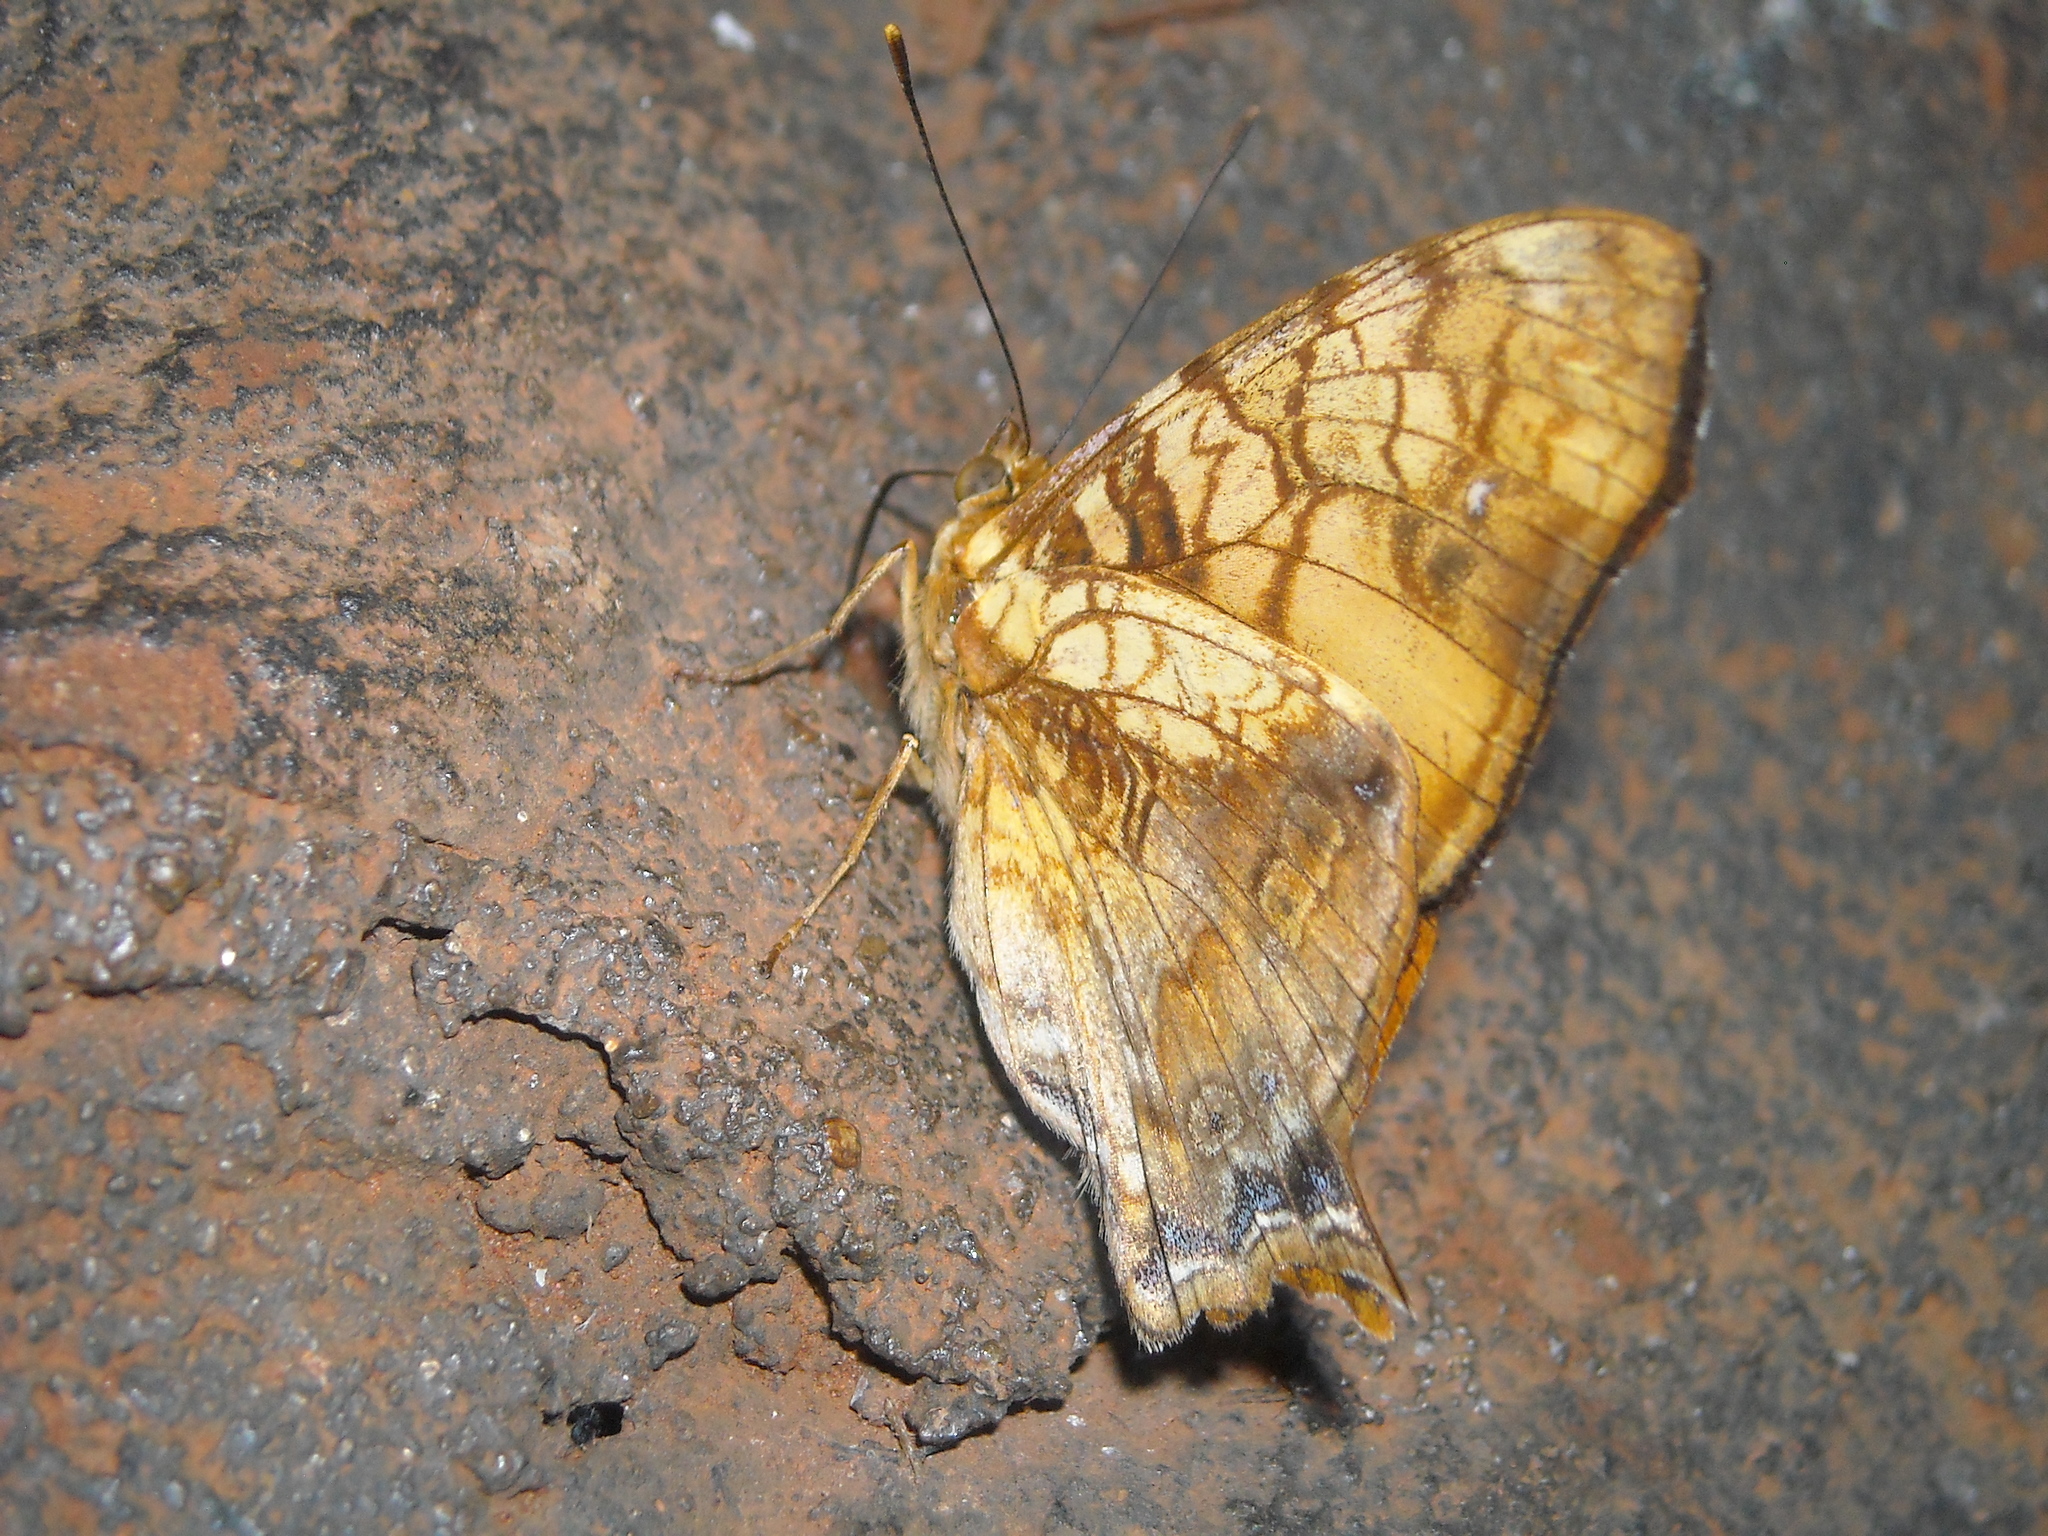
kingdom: Animalia
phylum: Arthropoda
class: Insecta
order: Lepidoptera
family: Nymphalidae
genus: Hypanartia
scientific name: Hypanartia lethe
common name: Orange mapwing
